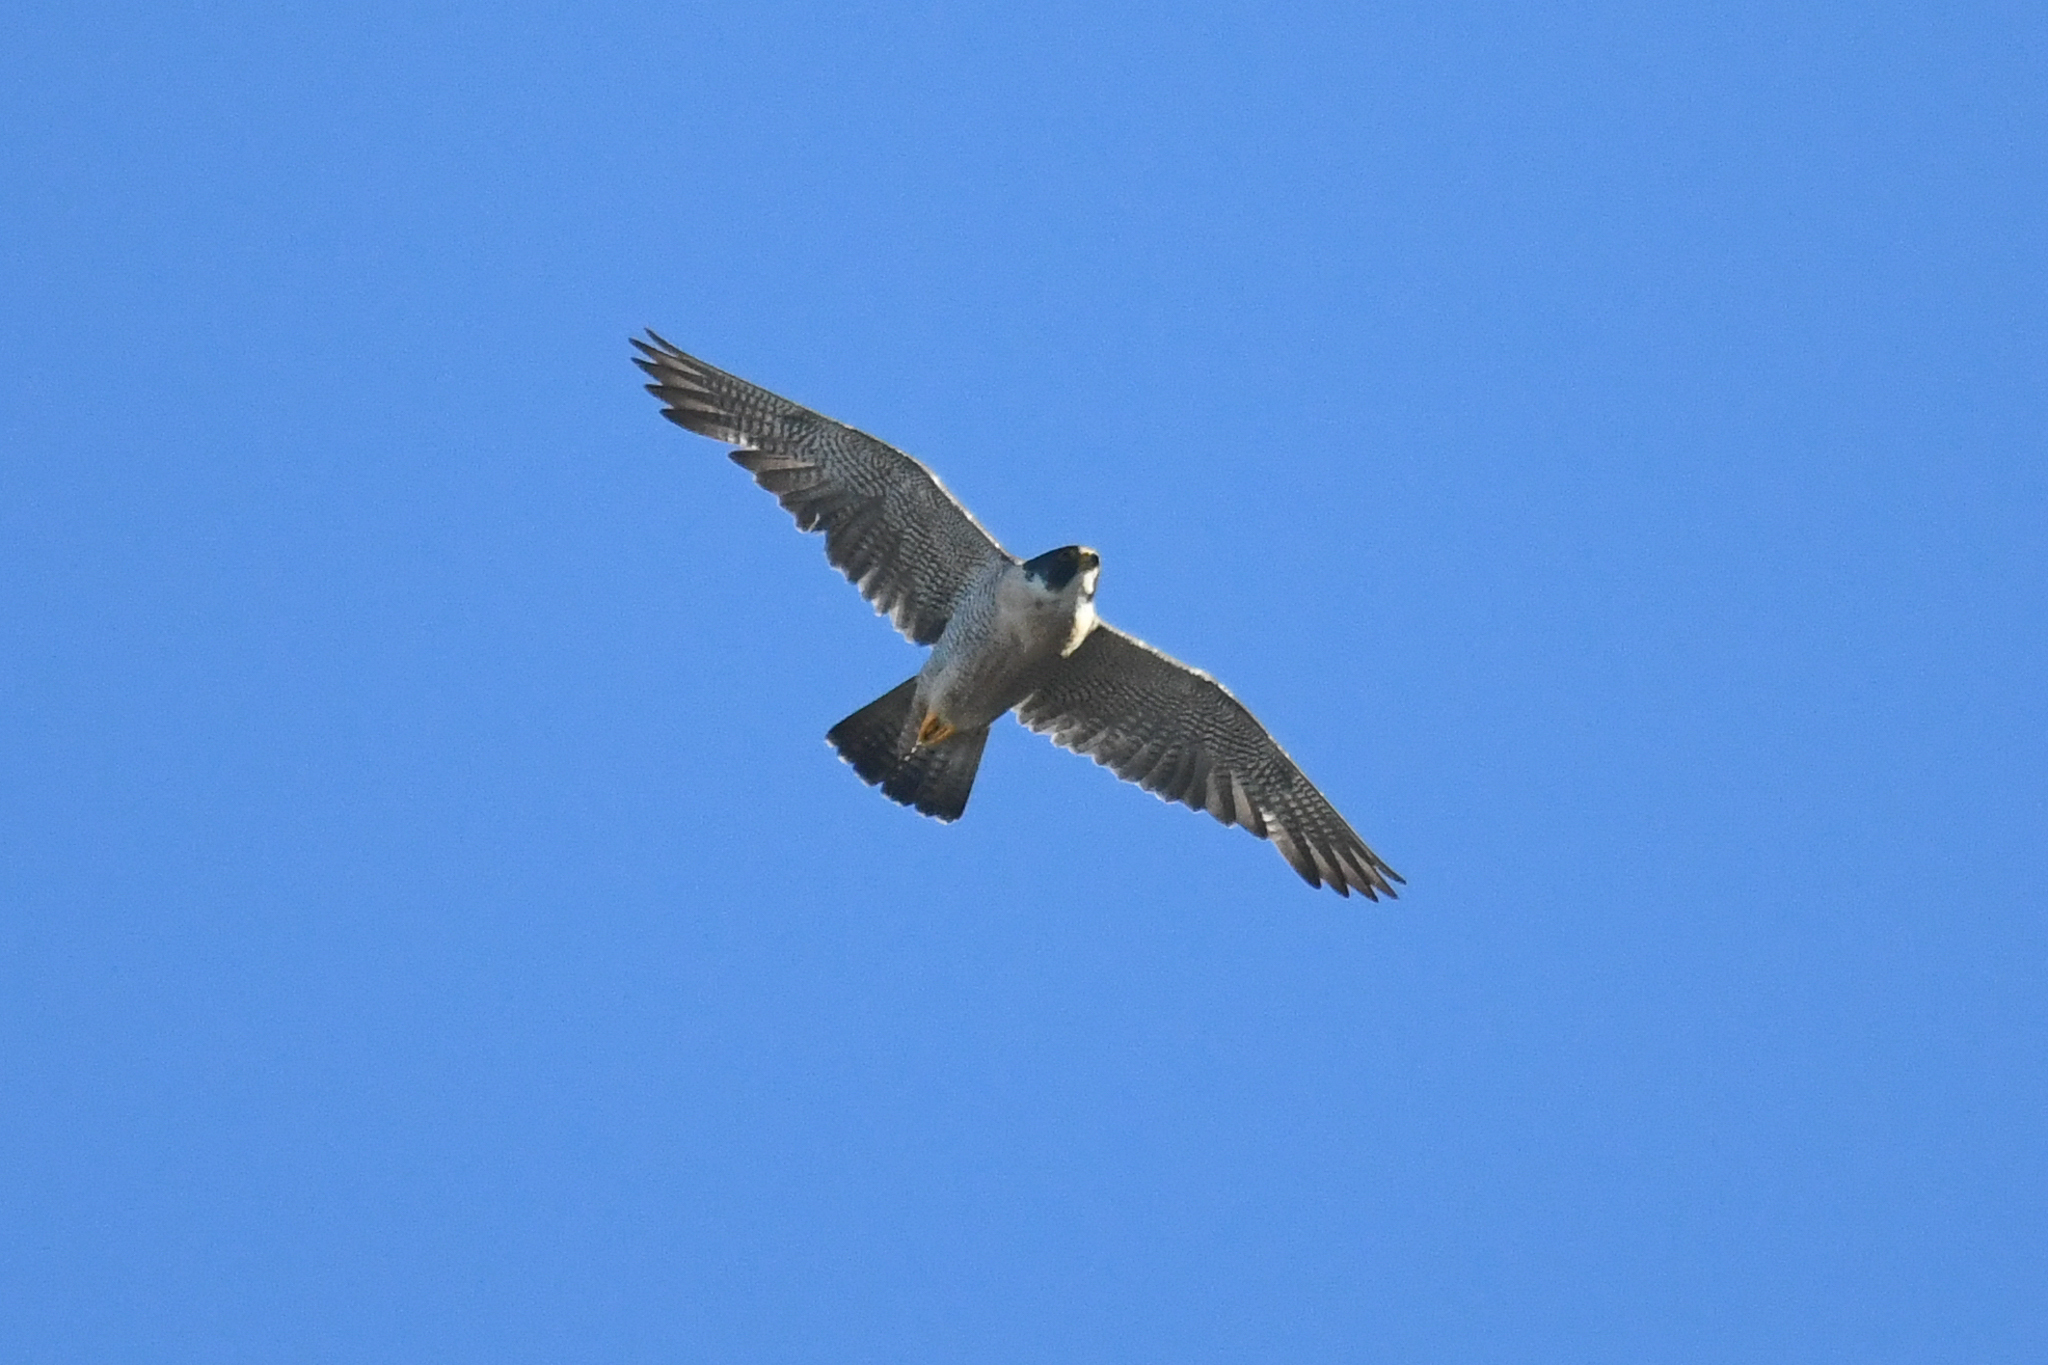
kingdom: Animalia
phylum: Chordata
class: Aves
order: Falconiformes
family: Falconidae
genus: Falco
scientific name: Falco peregrinus
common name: Peregrine falcon
